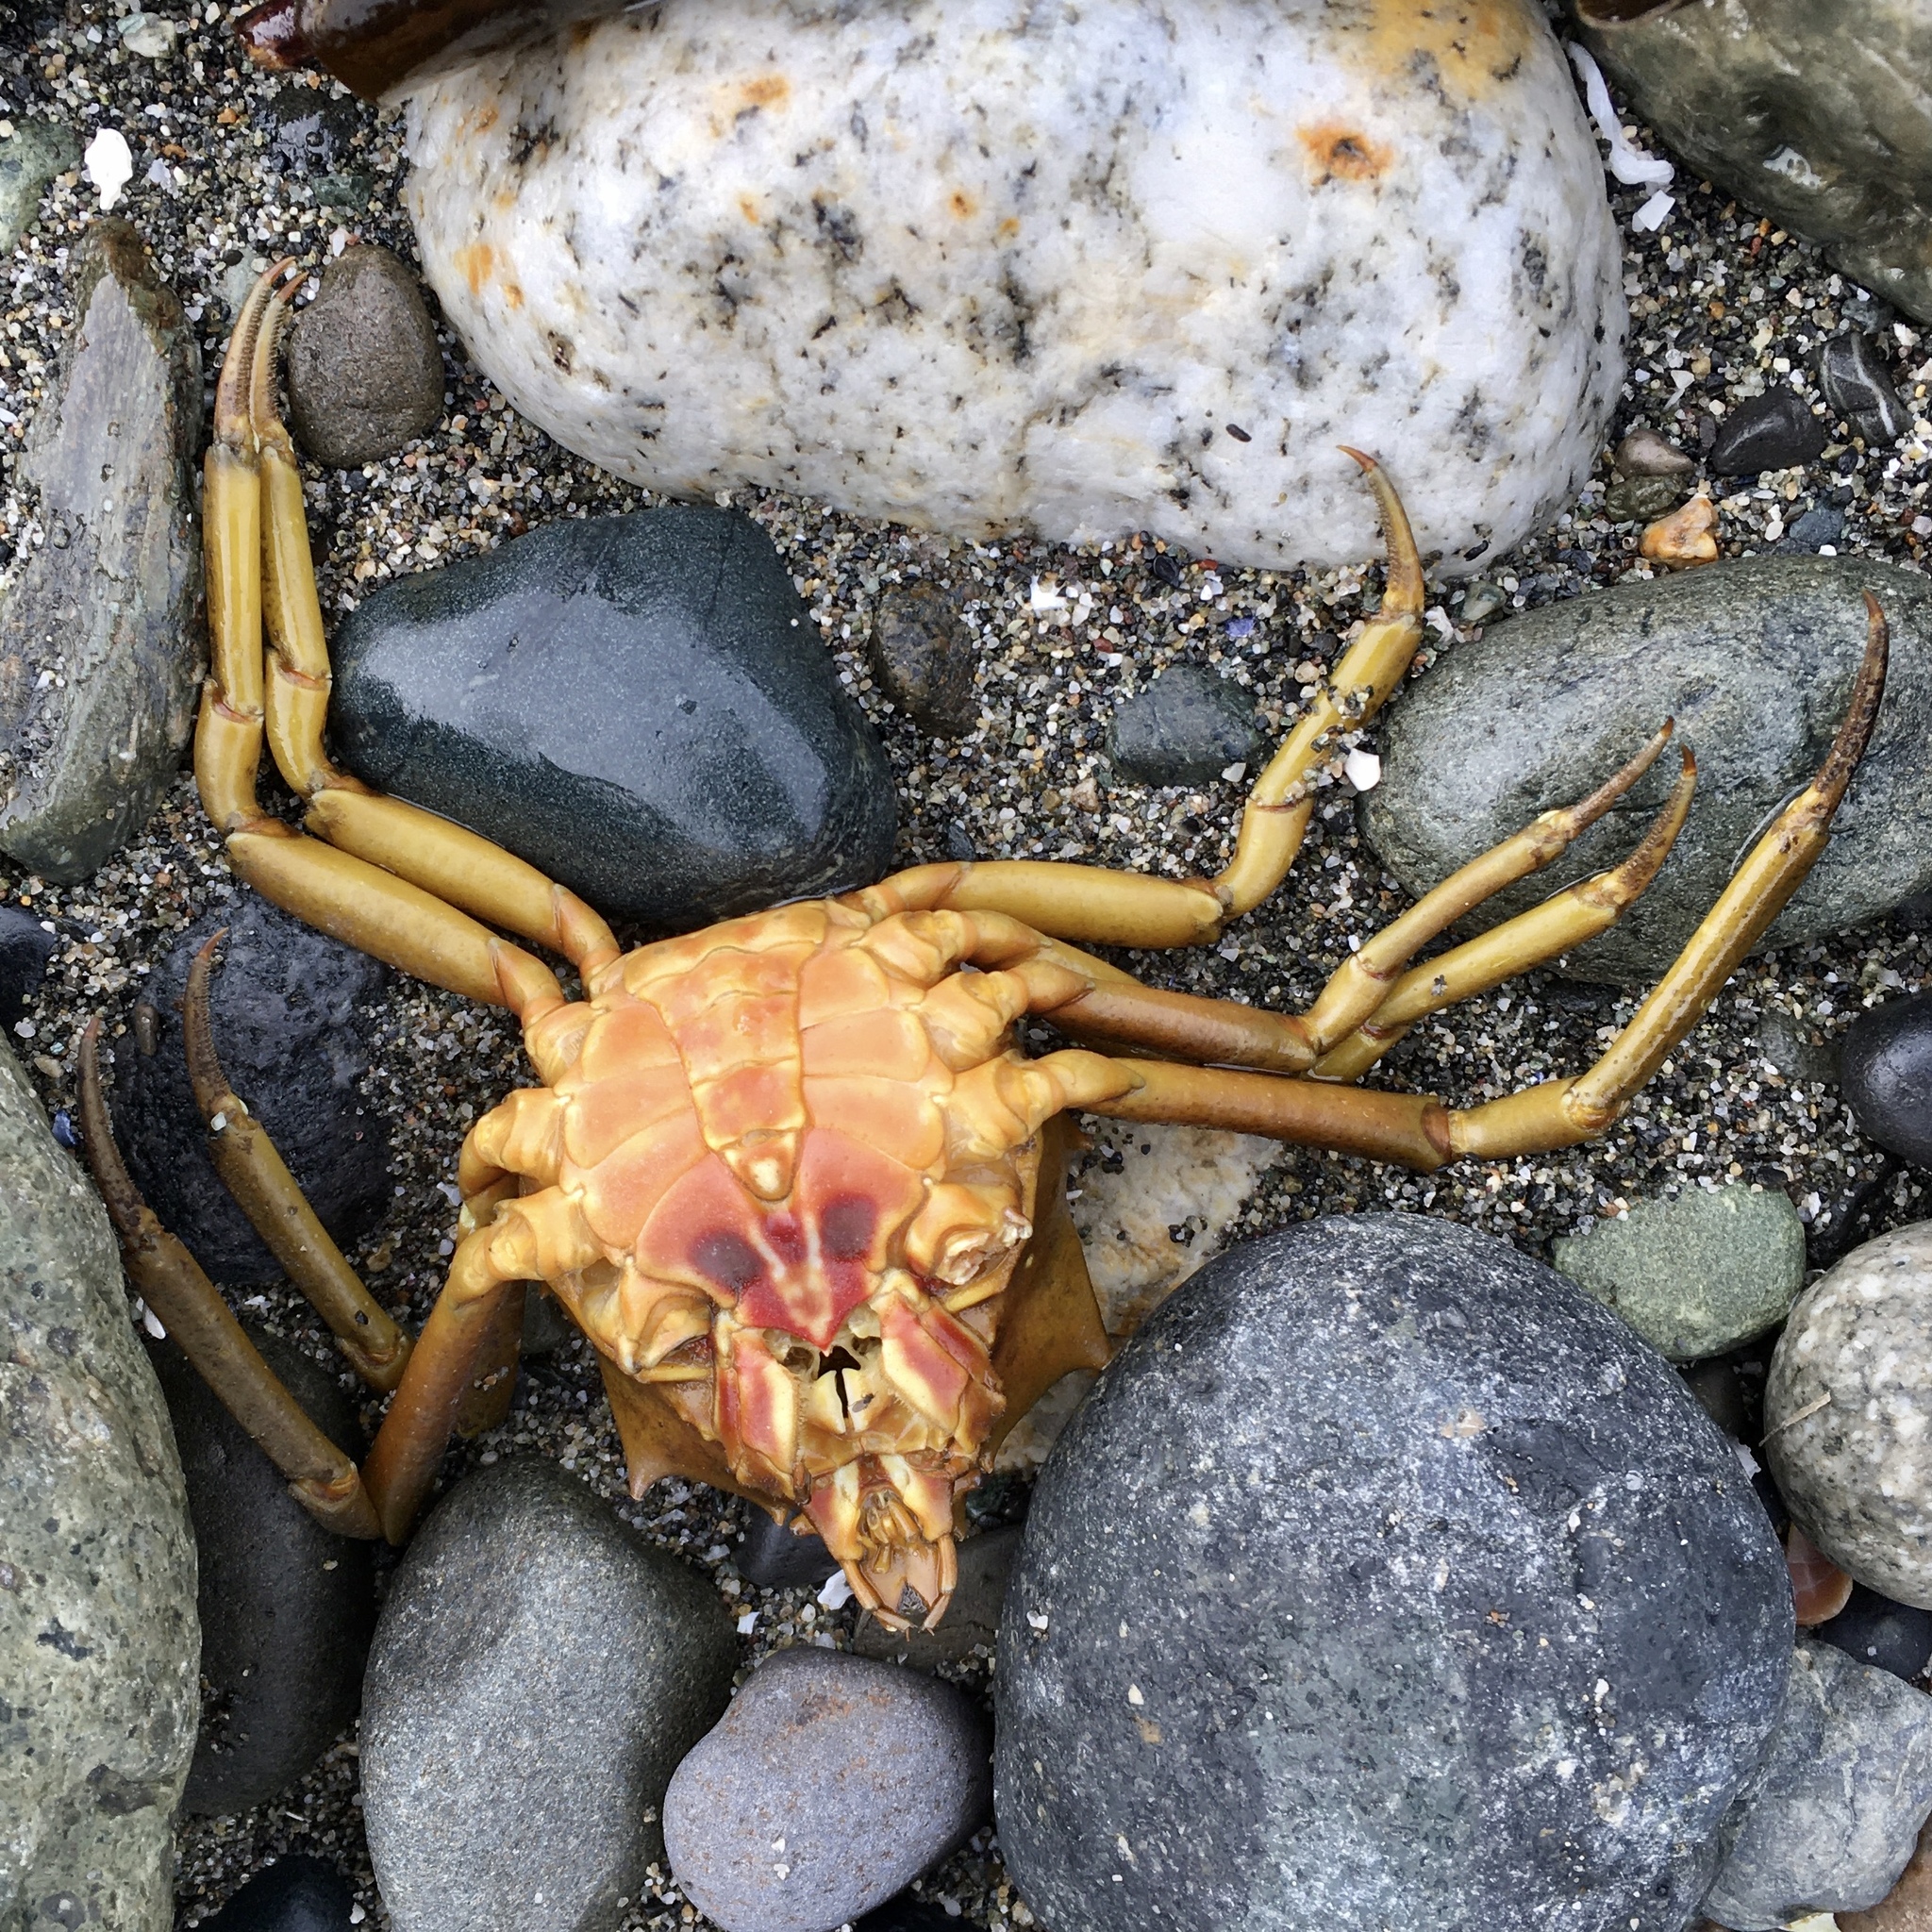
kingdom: Animalia
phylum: Arthropoda
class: Malacostraca
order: Decapoda
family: Epialtidae
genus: Pugettia
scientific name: Pugettia producta
